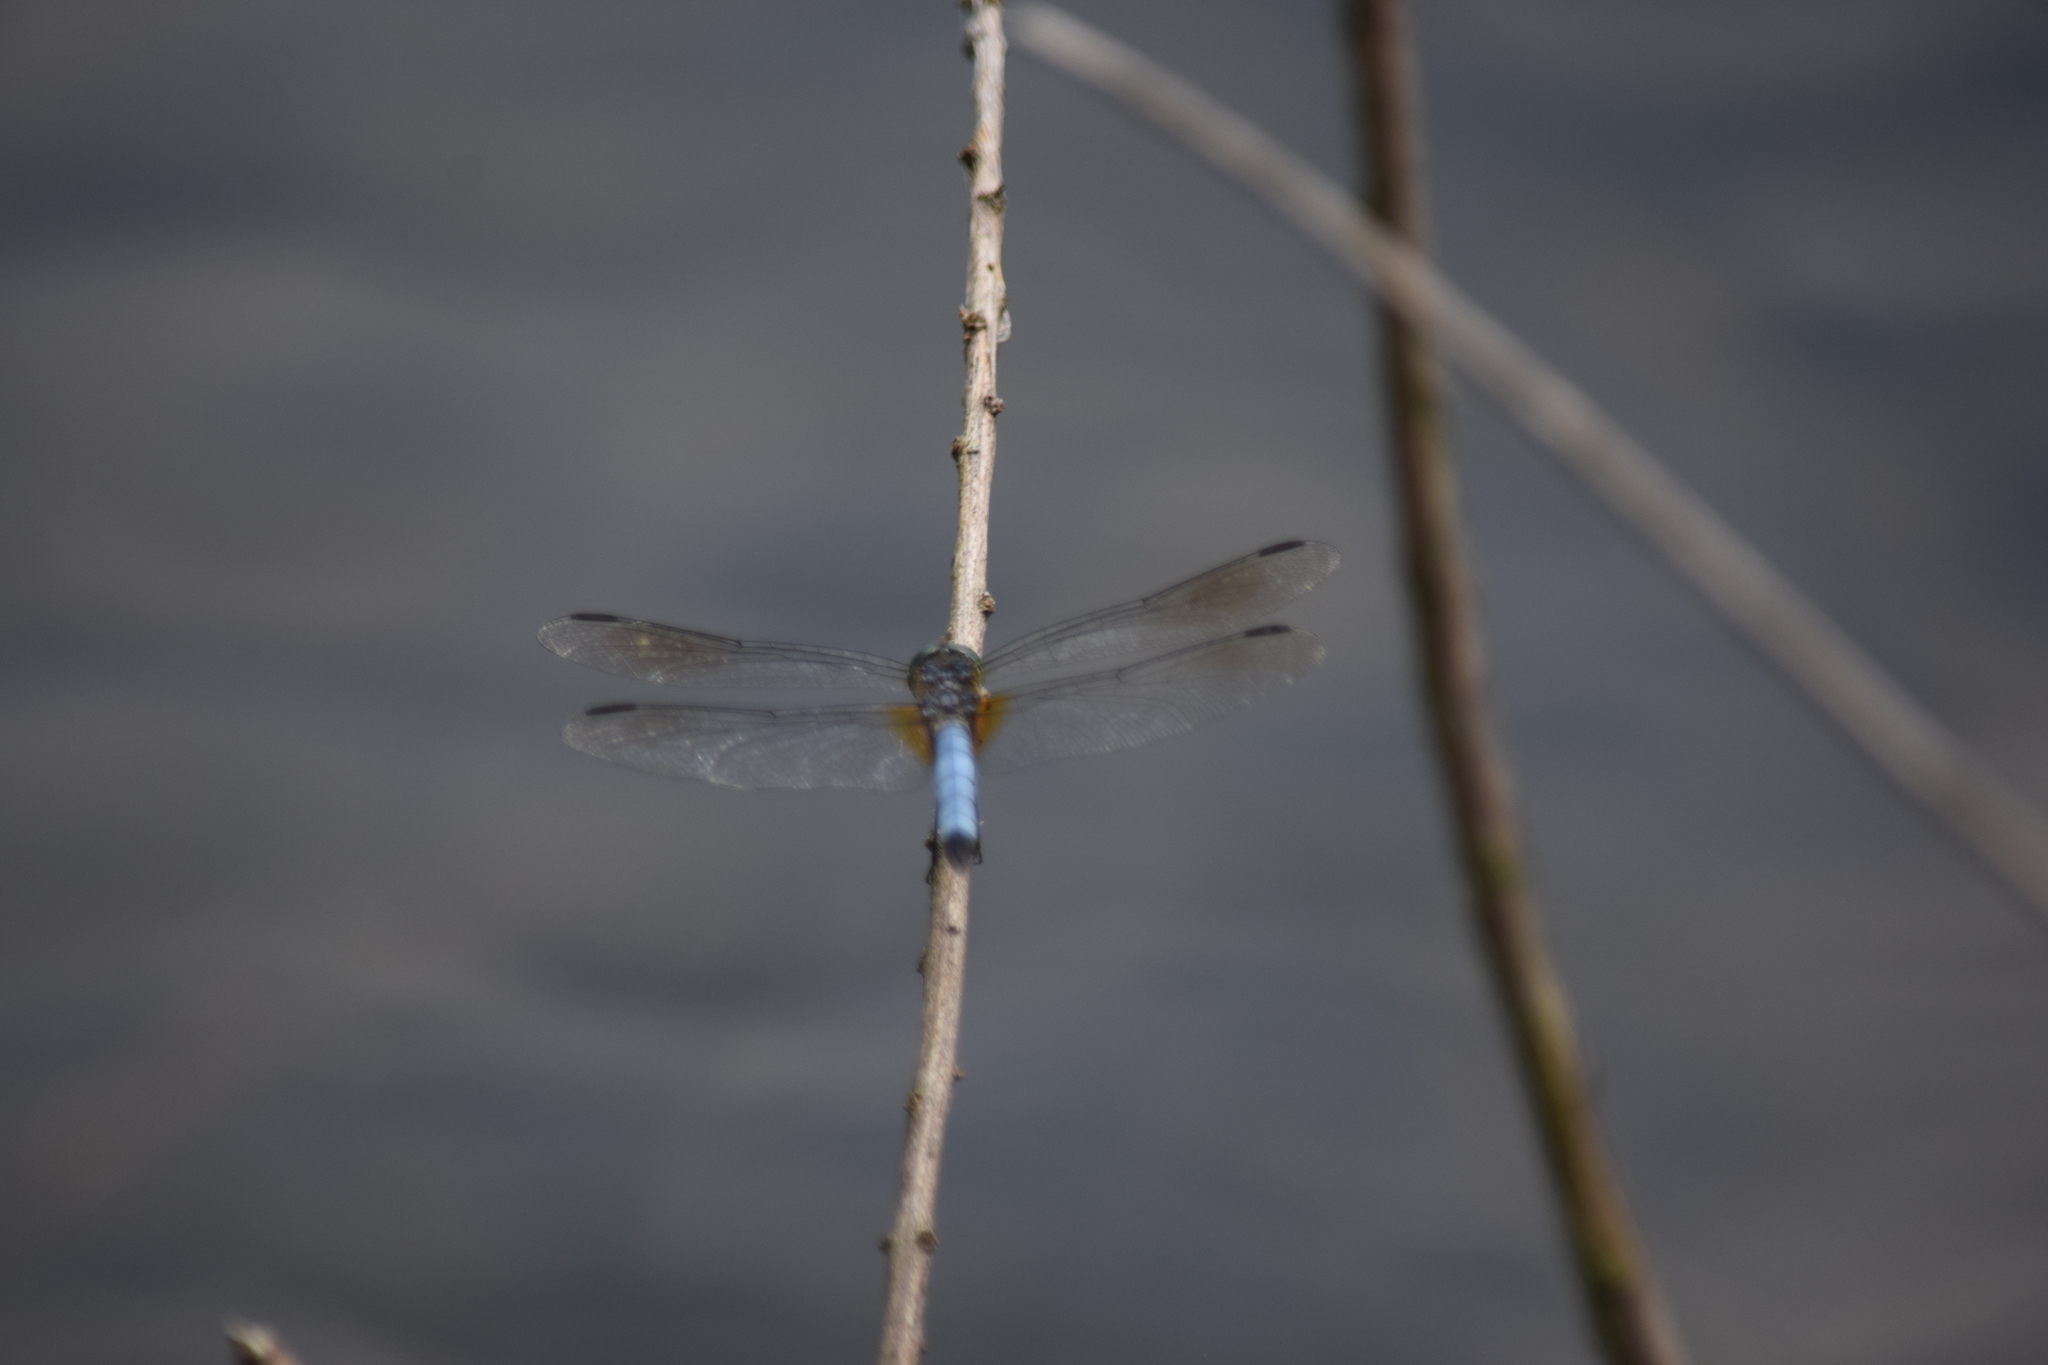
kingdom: Animalia
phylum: Arthropoda
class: Insecta
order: Odonata
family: Libellulidae
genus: Pachydiplax
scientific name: Pachydiplax longipennis
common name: Blue dasher
